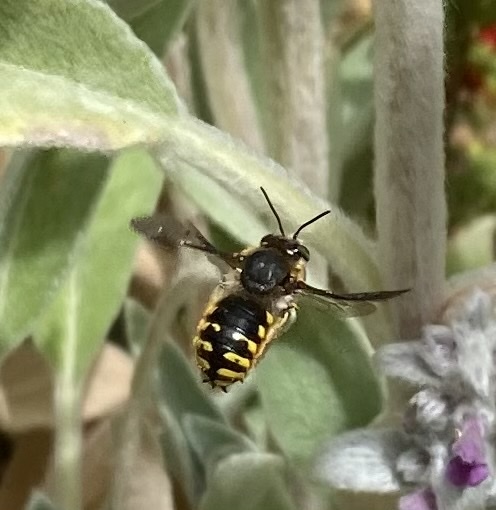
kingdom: Animalia
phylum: Arthropoda
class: Insecta
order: Hymenoptera
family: Megachilidae
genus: Anthidium
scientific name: Anthidium manicatum
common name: Wool carder bee
